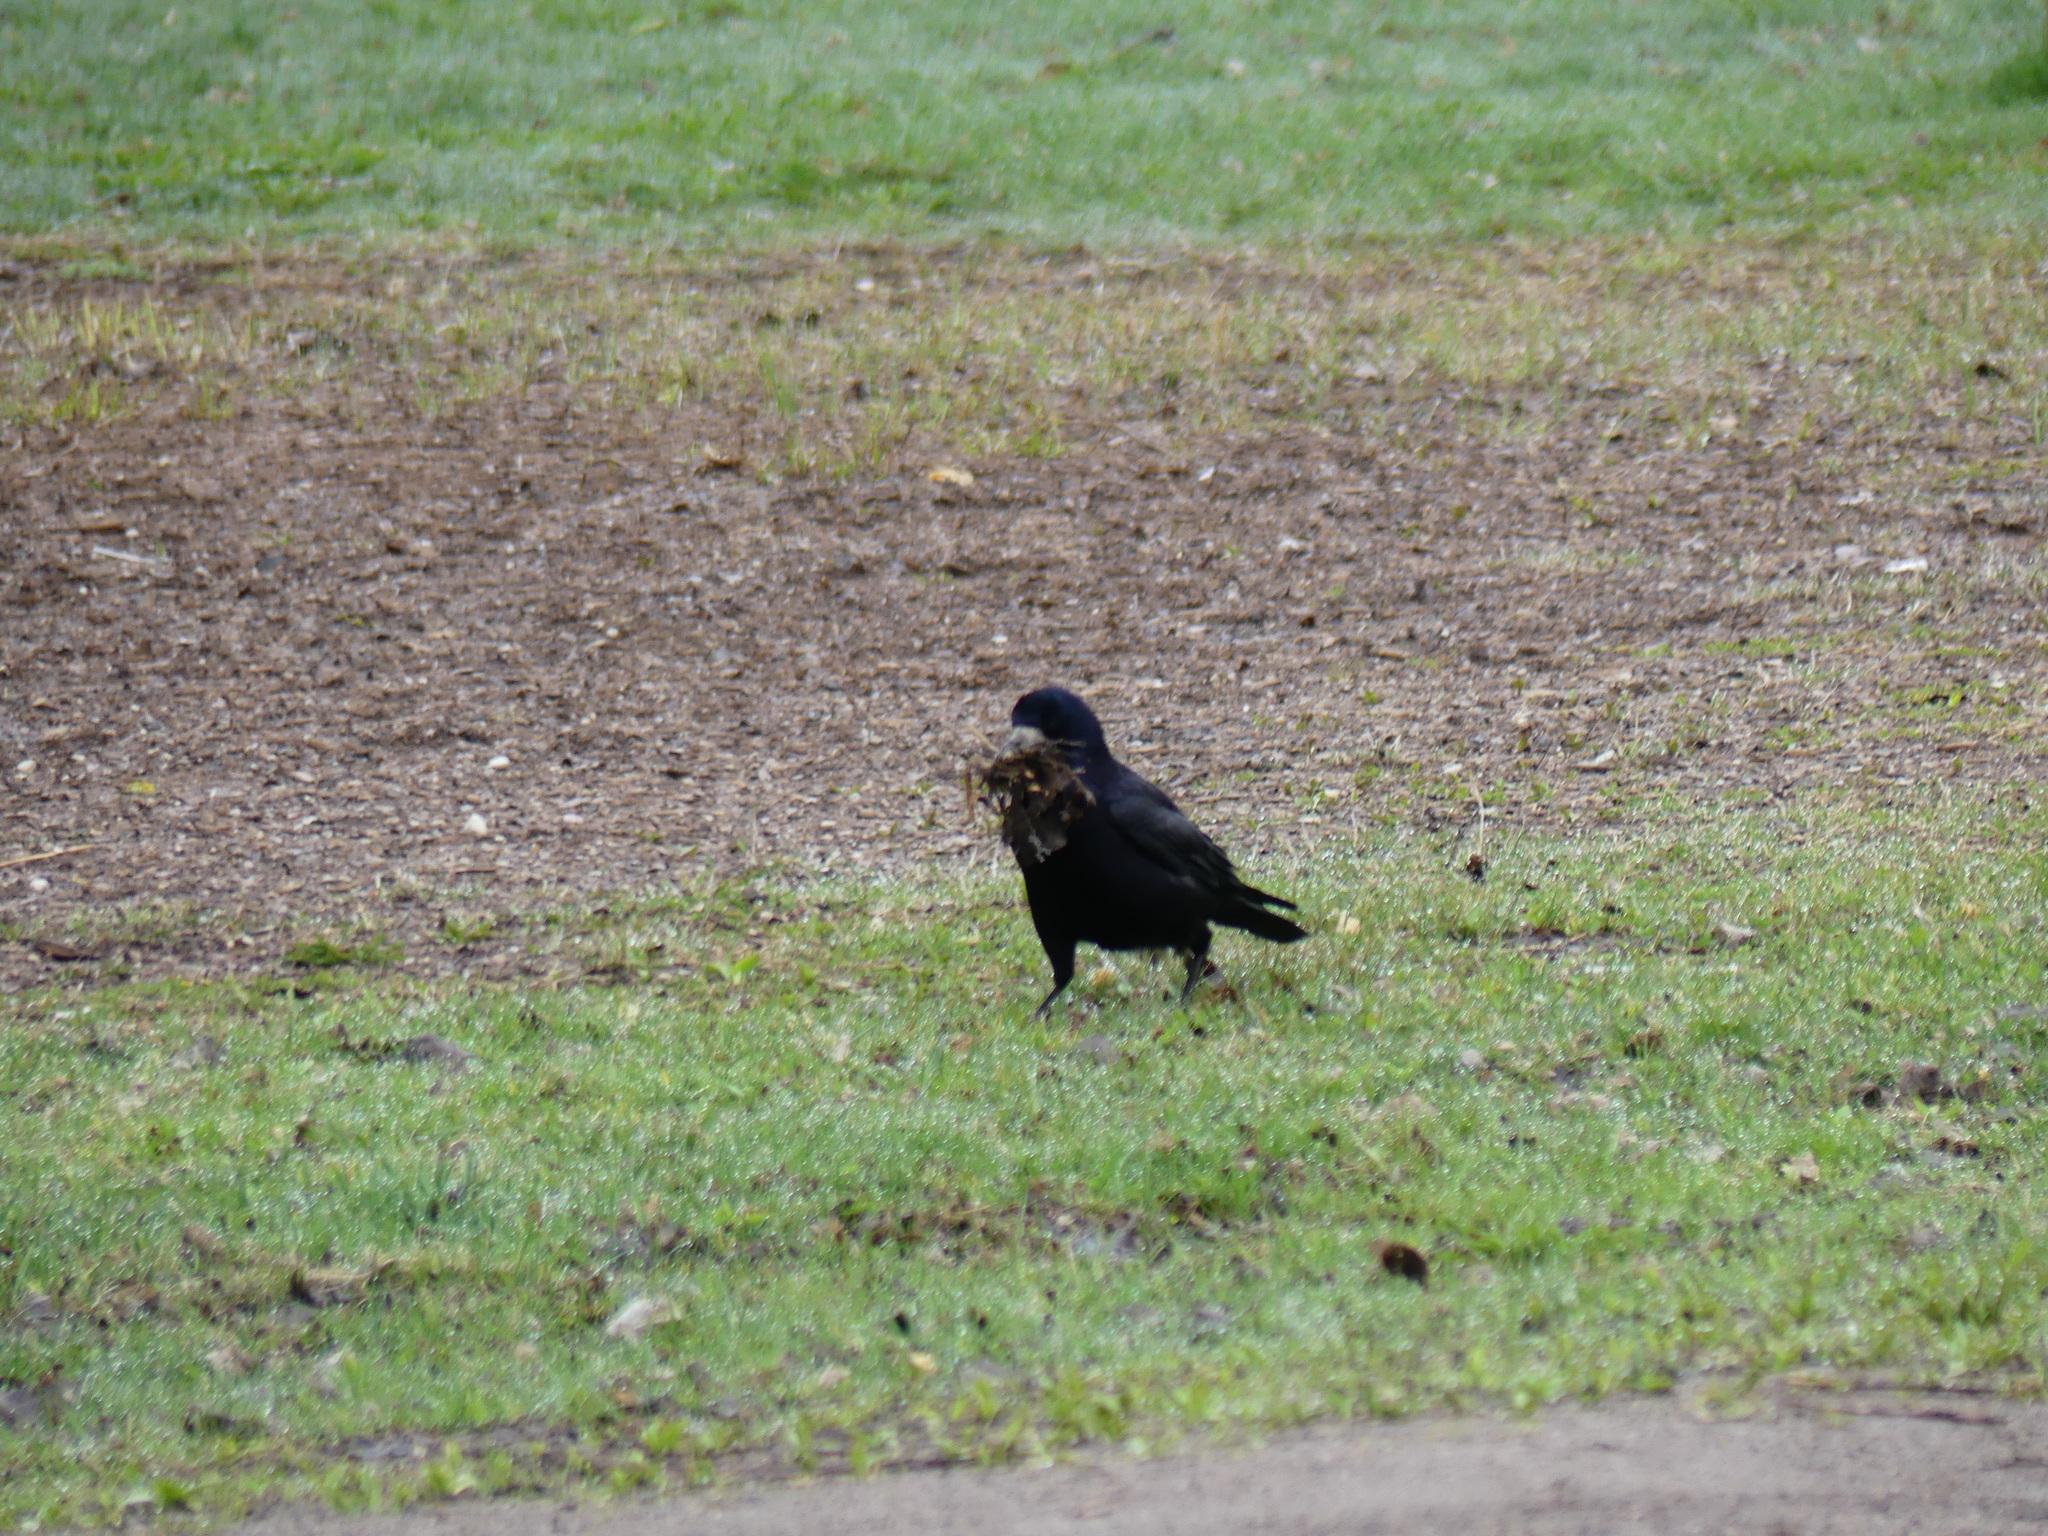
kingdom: Animalia
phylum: Chordata
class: Aves
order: Passeriformes
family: Corvidae
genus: Corvus
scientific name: Corvus frugilegus
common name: Rook
